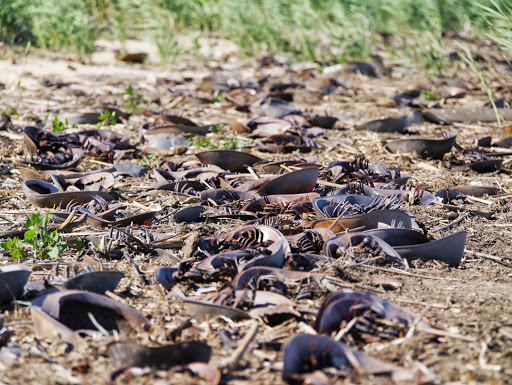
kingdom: Animalia
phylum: Arthropoda
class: Merostomata
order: Xiphosurida
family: Limulidae
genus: Limulus
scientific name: Limulus polyphemus
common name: Horseshoe crab
